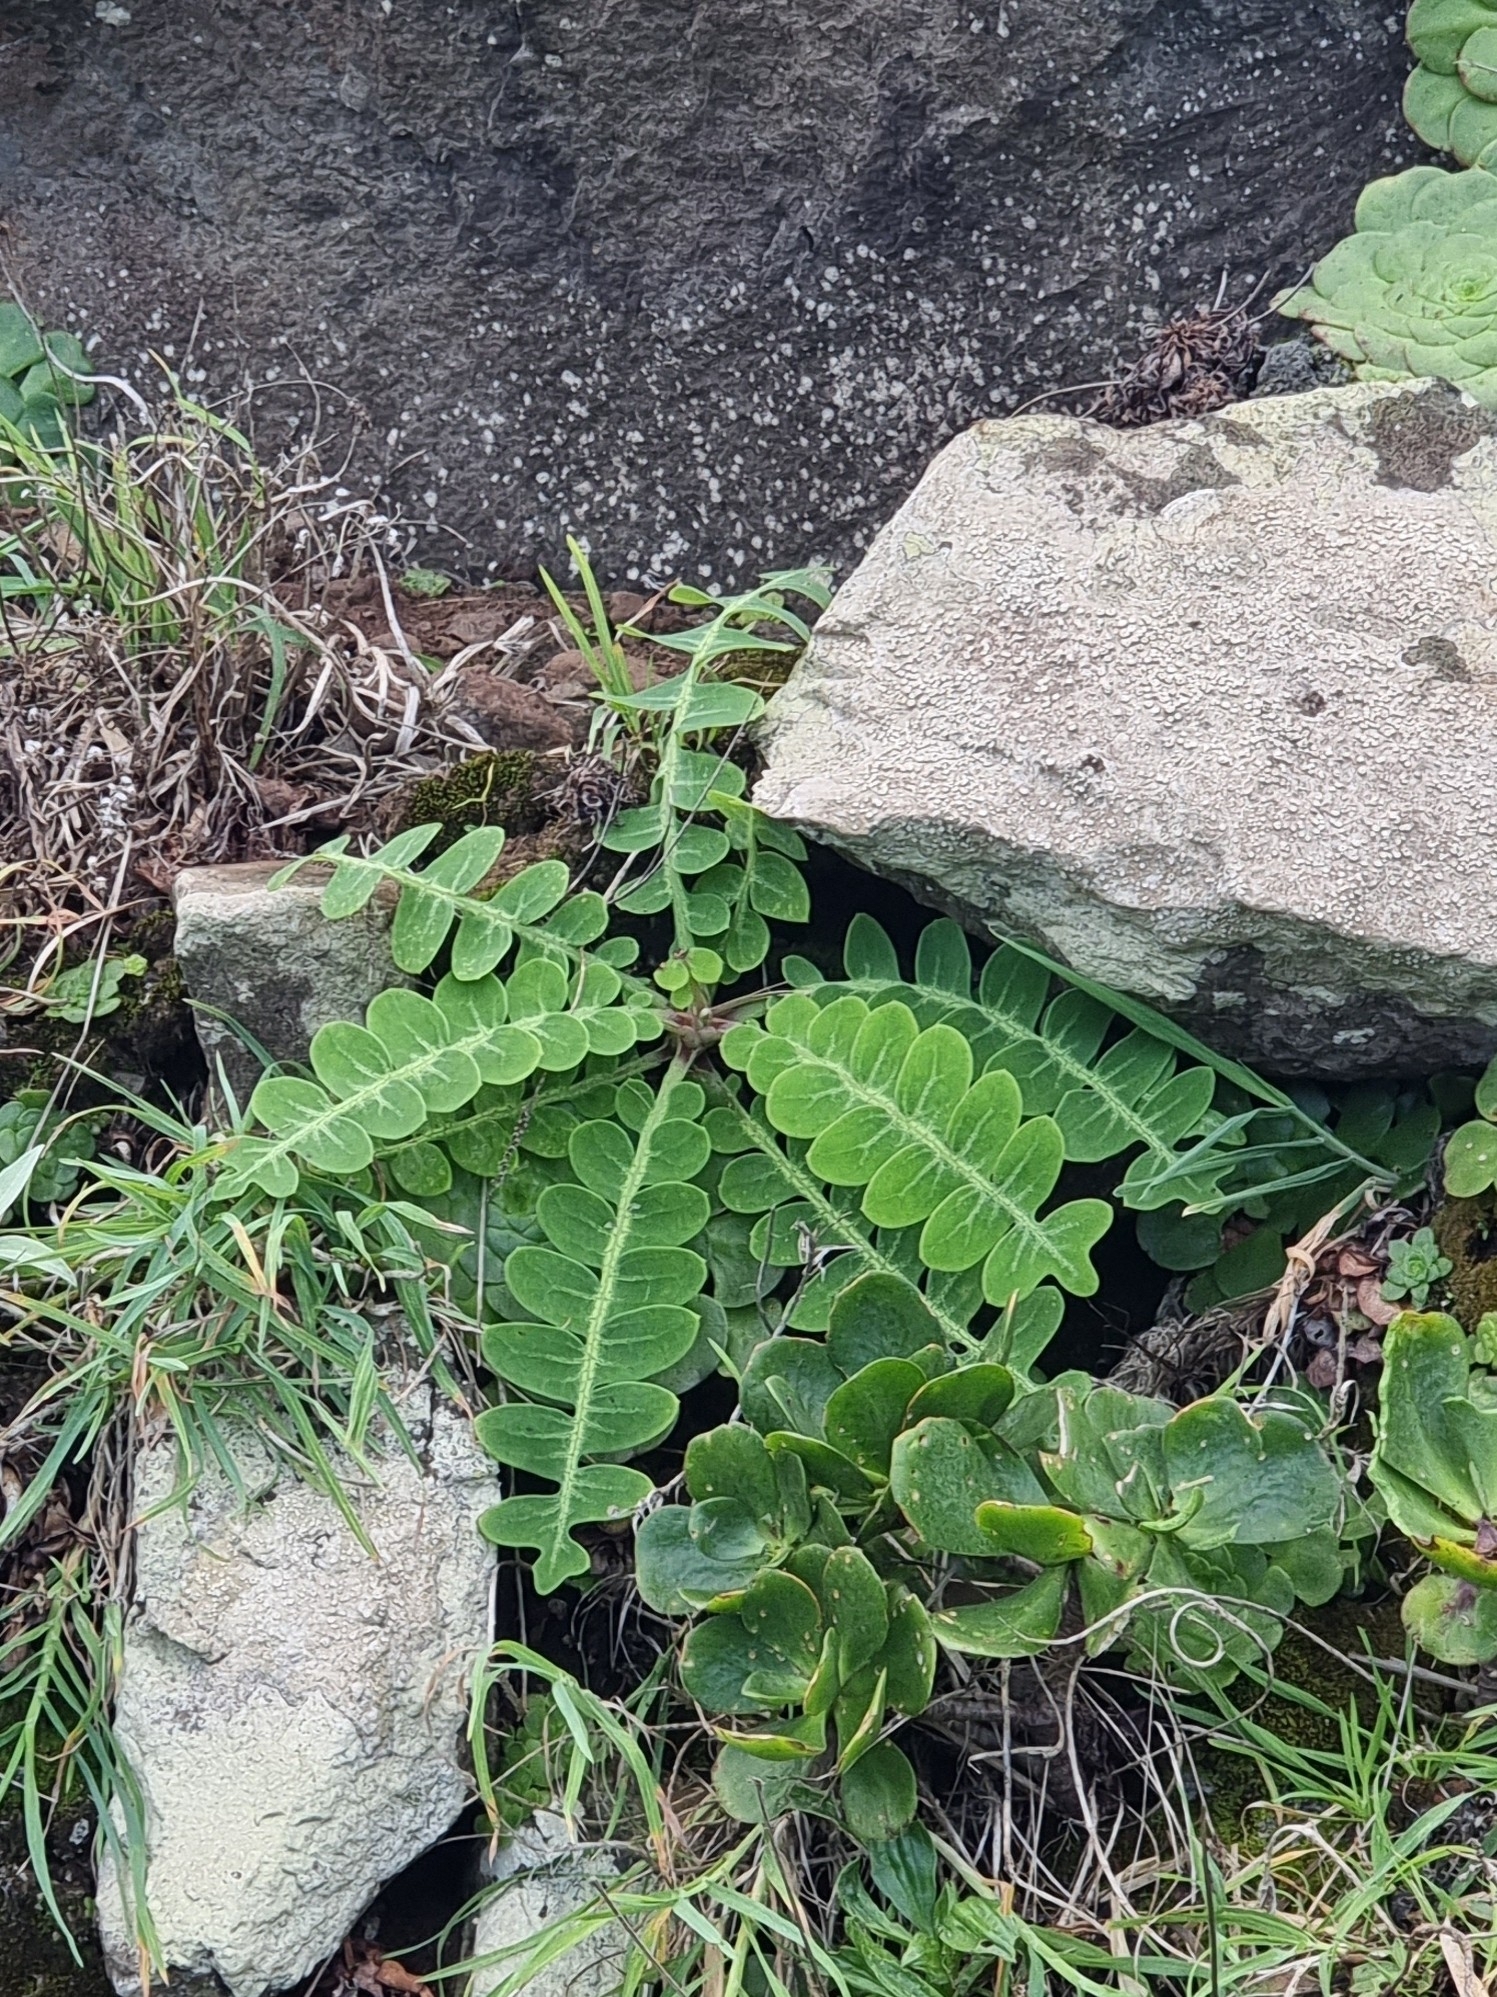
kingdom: Plantae
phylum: Tracheophyta
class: Magnoliopsida
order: Asterales
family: Asteraceae
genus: Sonchus
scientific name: Sonchus latifolius
